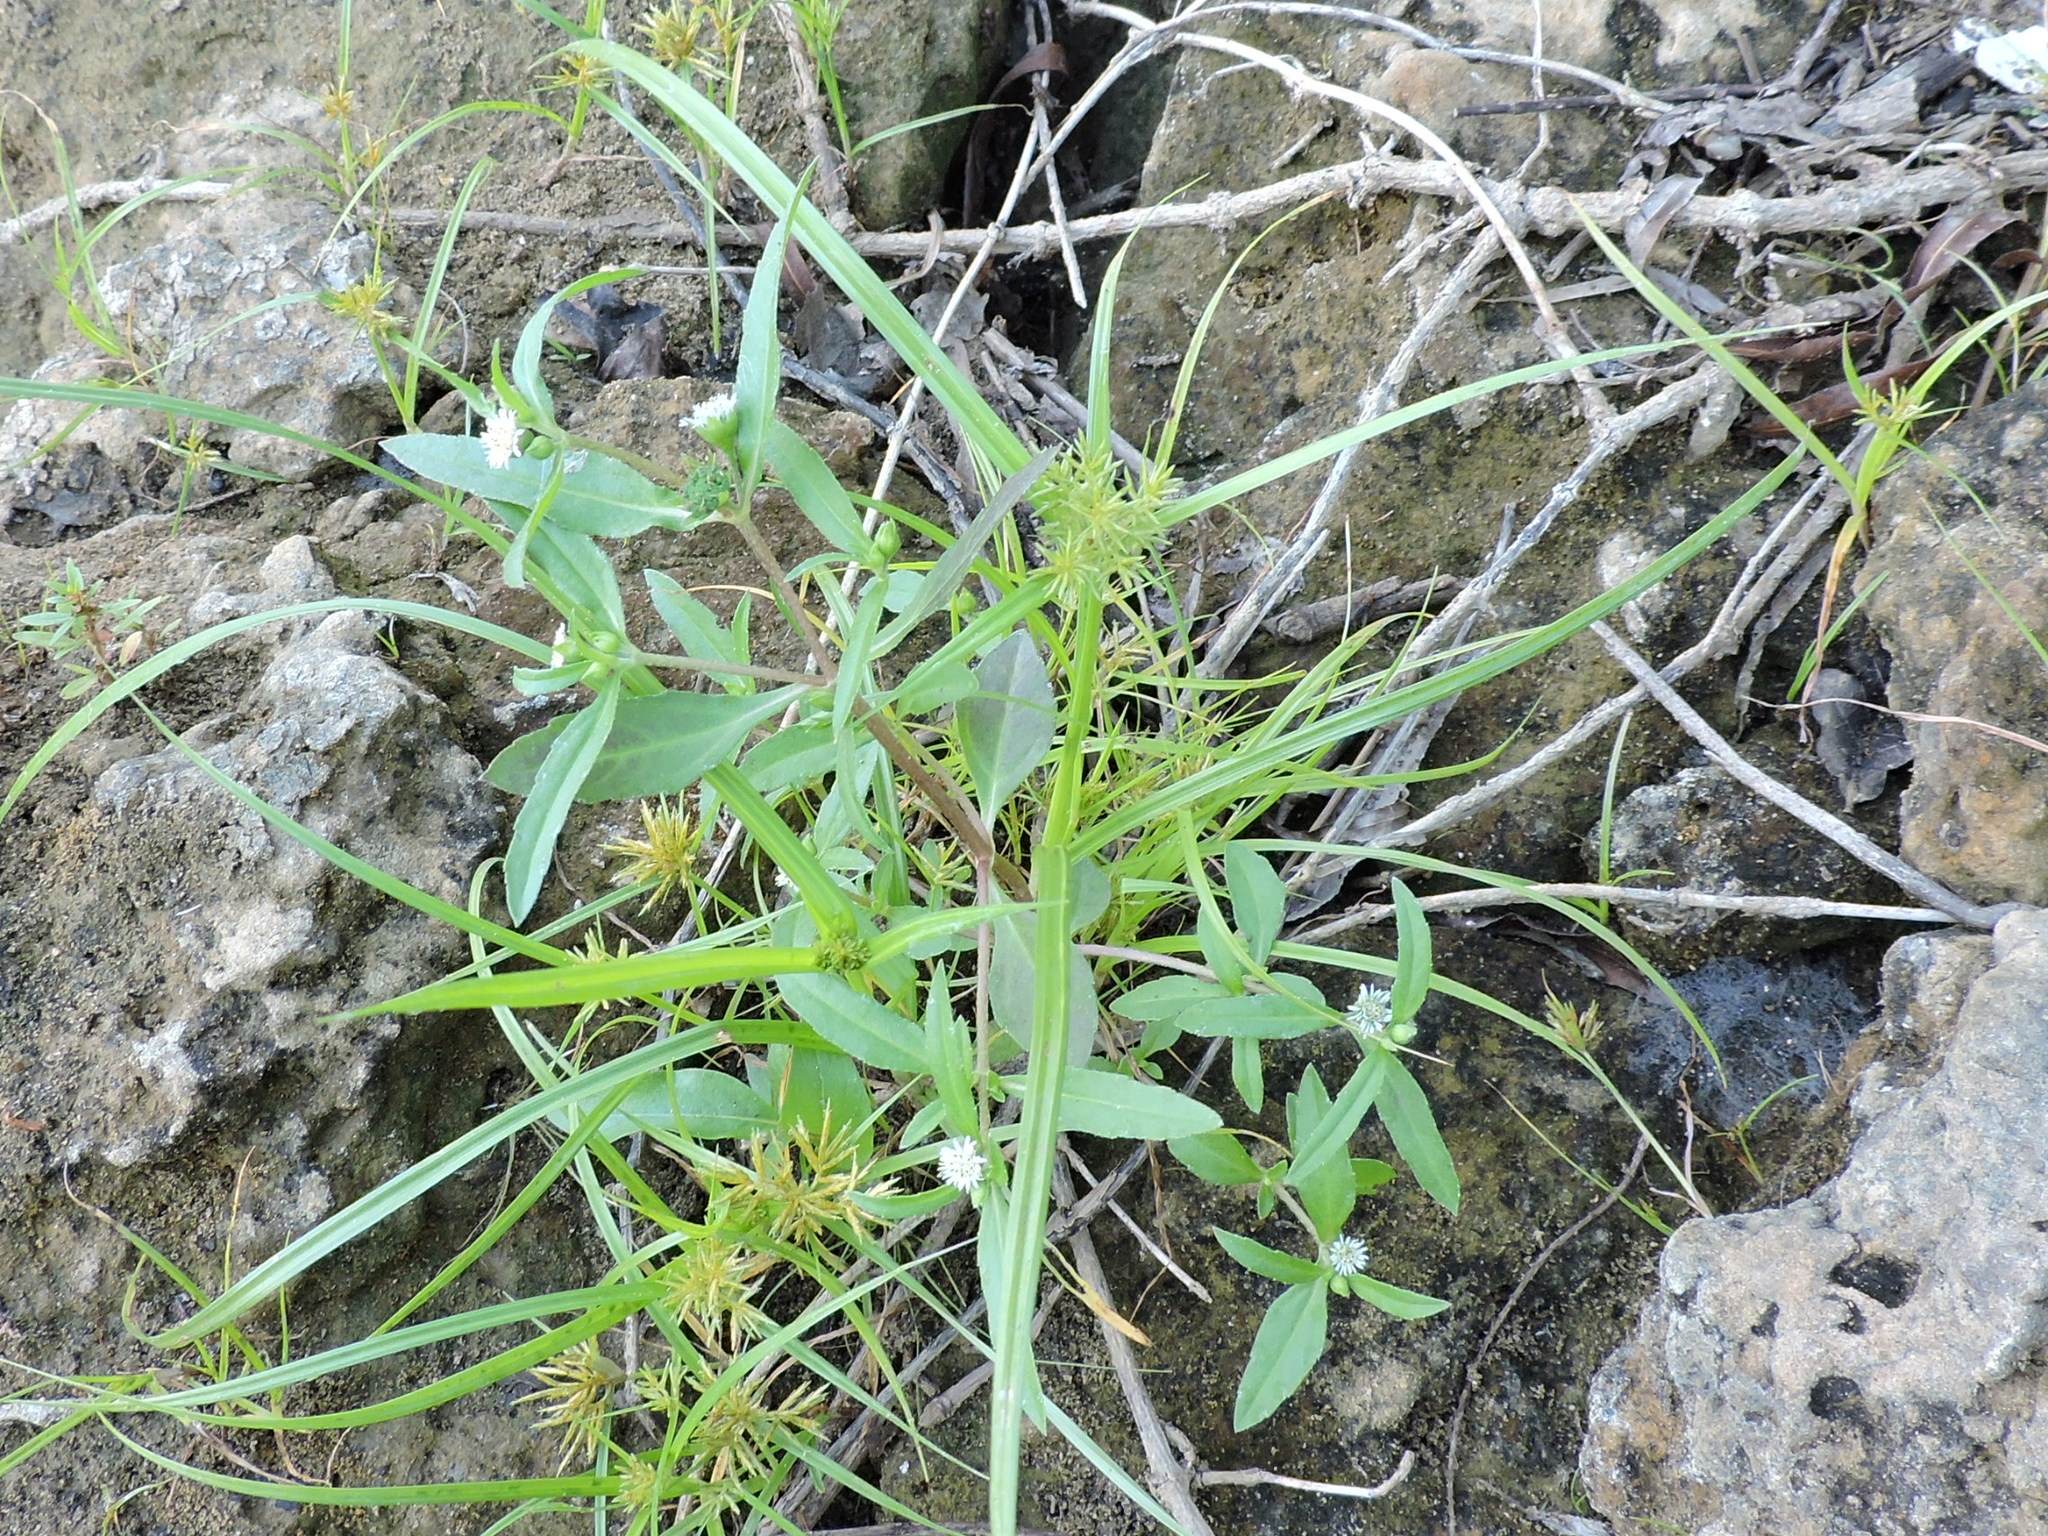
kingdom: Plantae
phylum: Tracheophyta
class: Magnoliopsida
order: Asterales
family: Asteraceae
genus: Eclipta
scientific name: Eclipta prostrata
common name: False daisy
